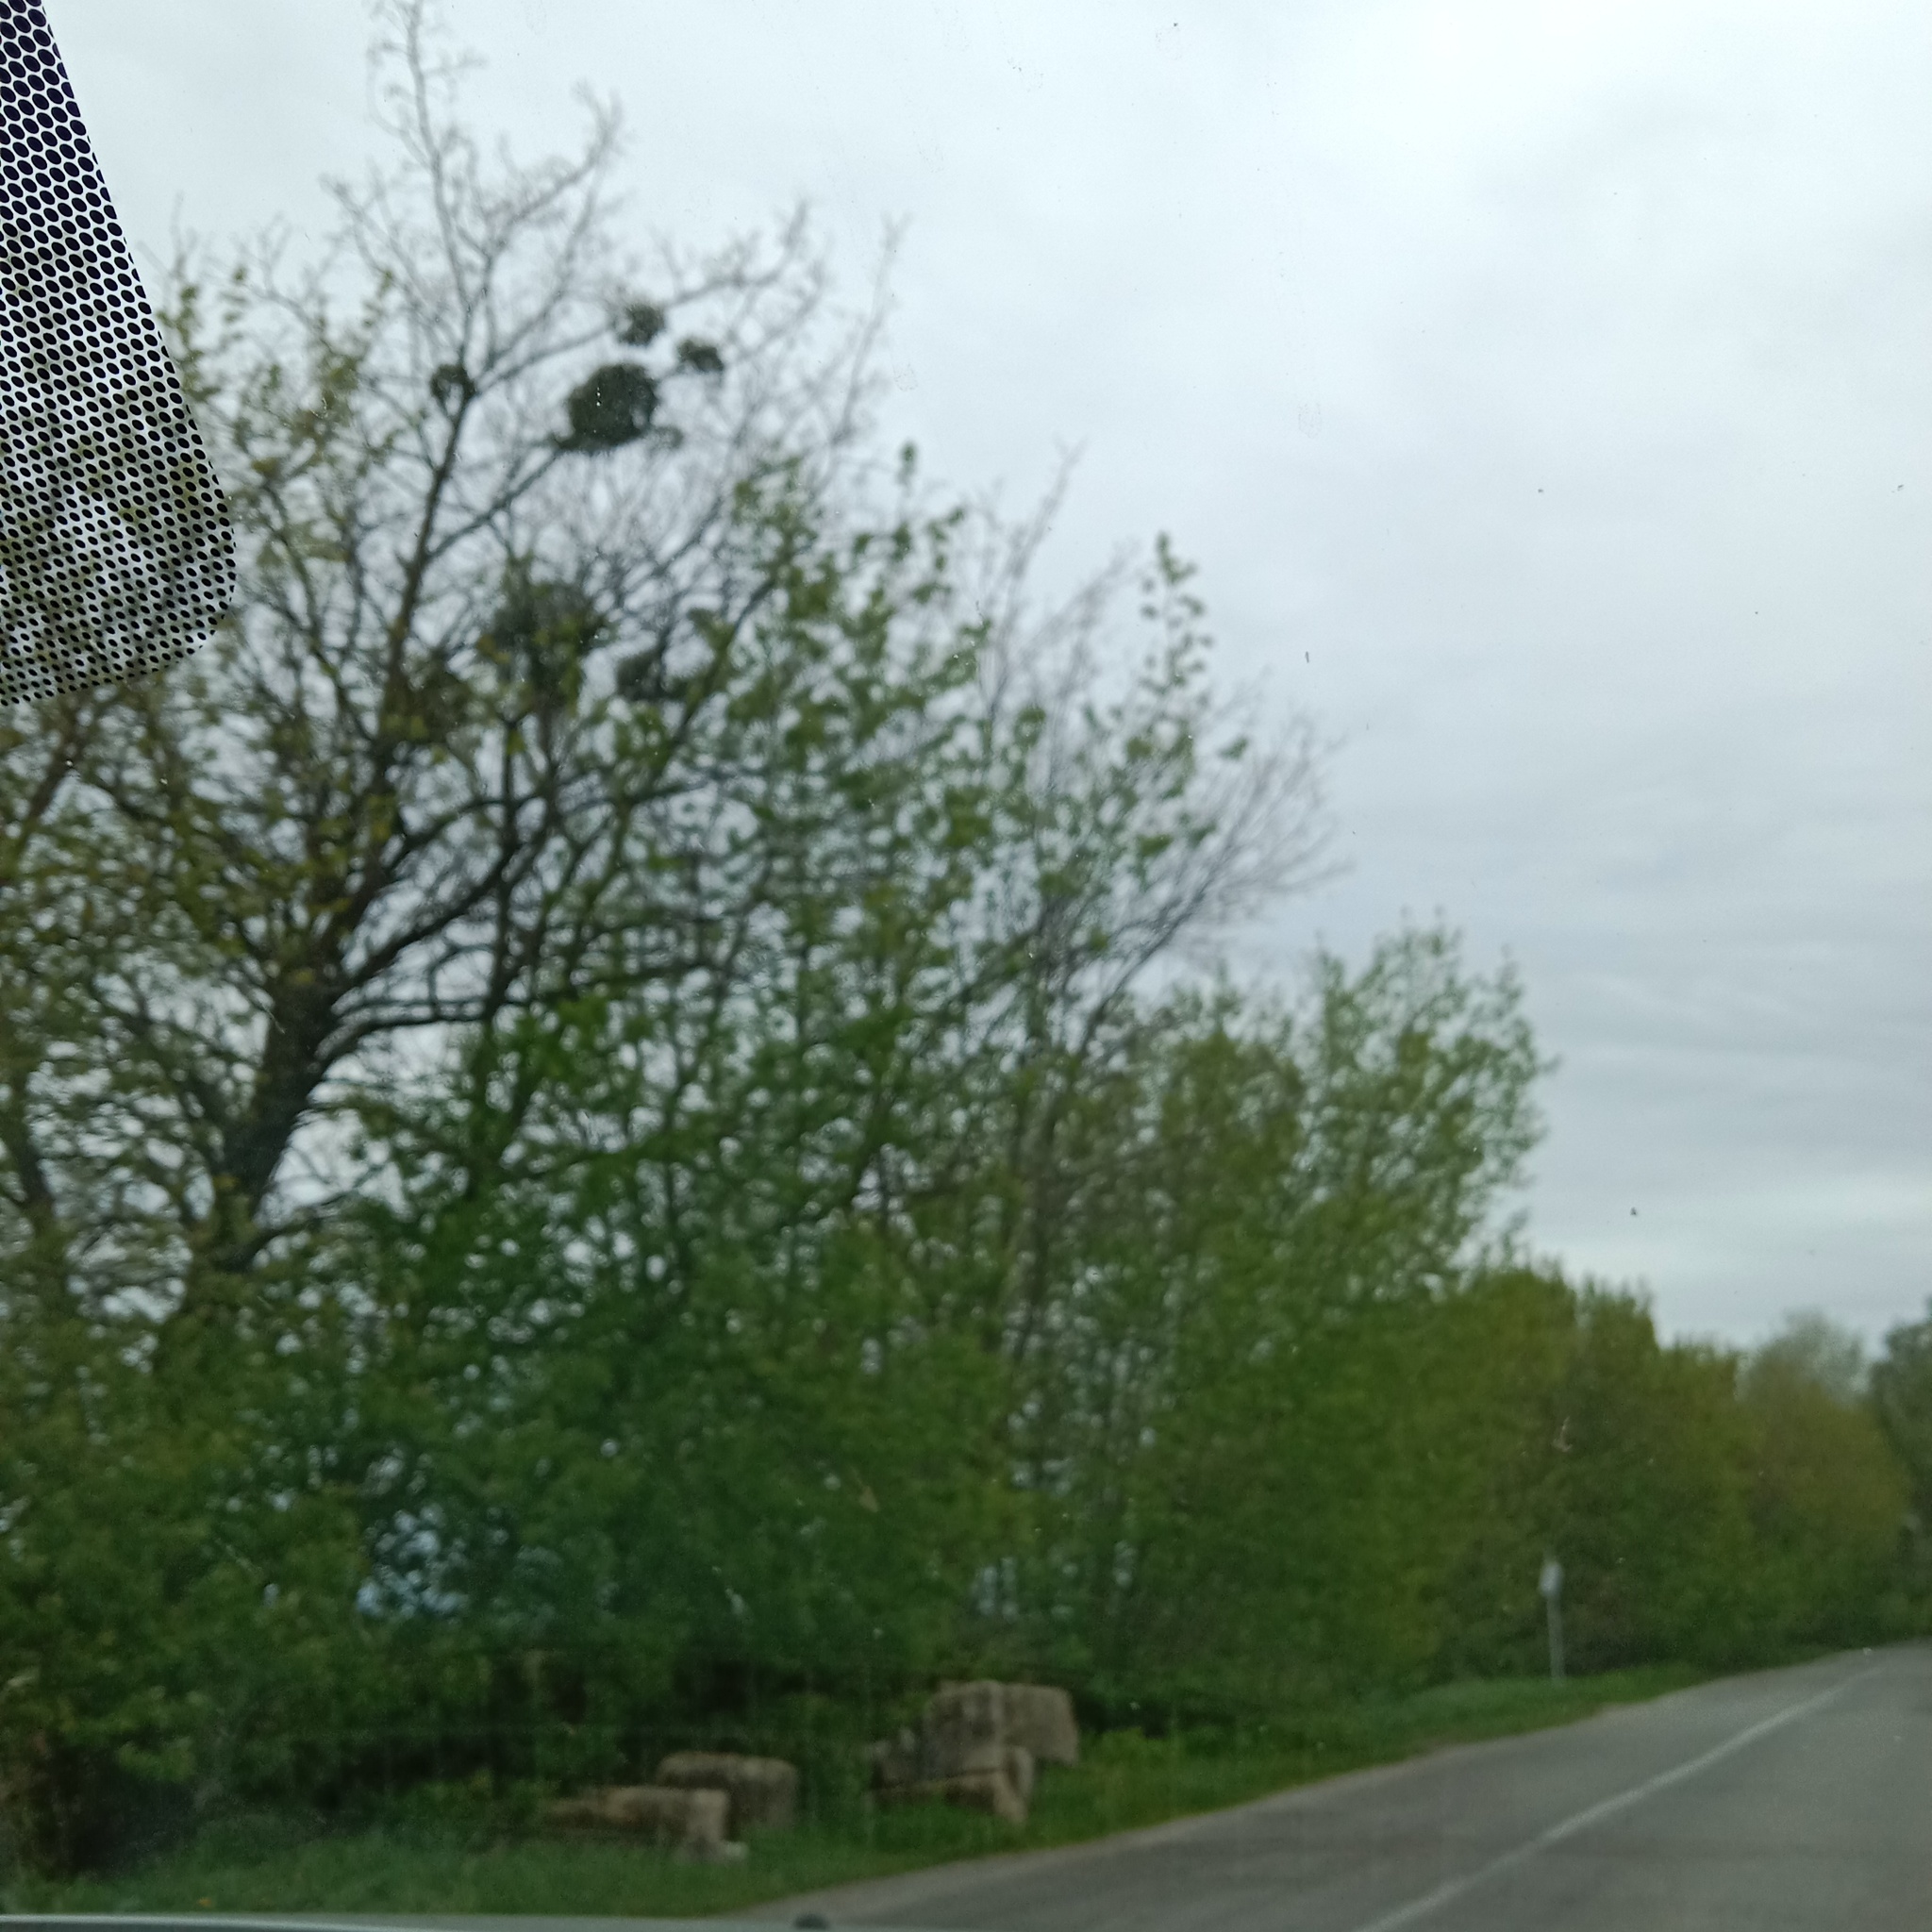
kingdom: Plantae
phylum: Tracheophyta
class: Magnoliopsida
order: Santalales
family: Viscaceae
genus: Viscum
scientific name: Viscum album
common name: Mistletoe
